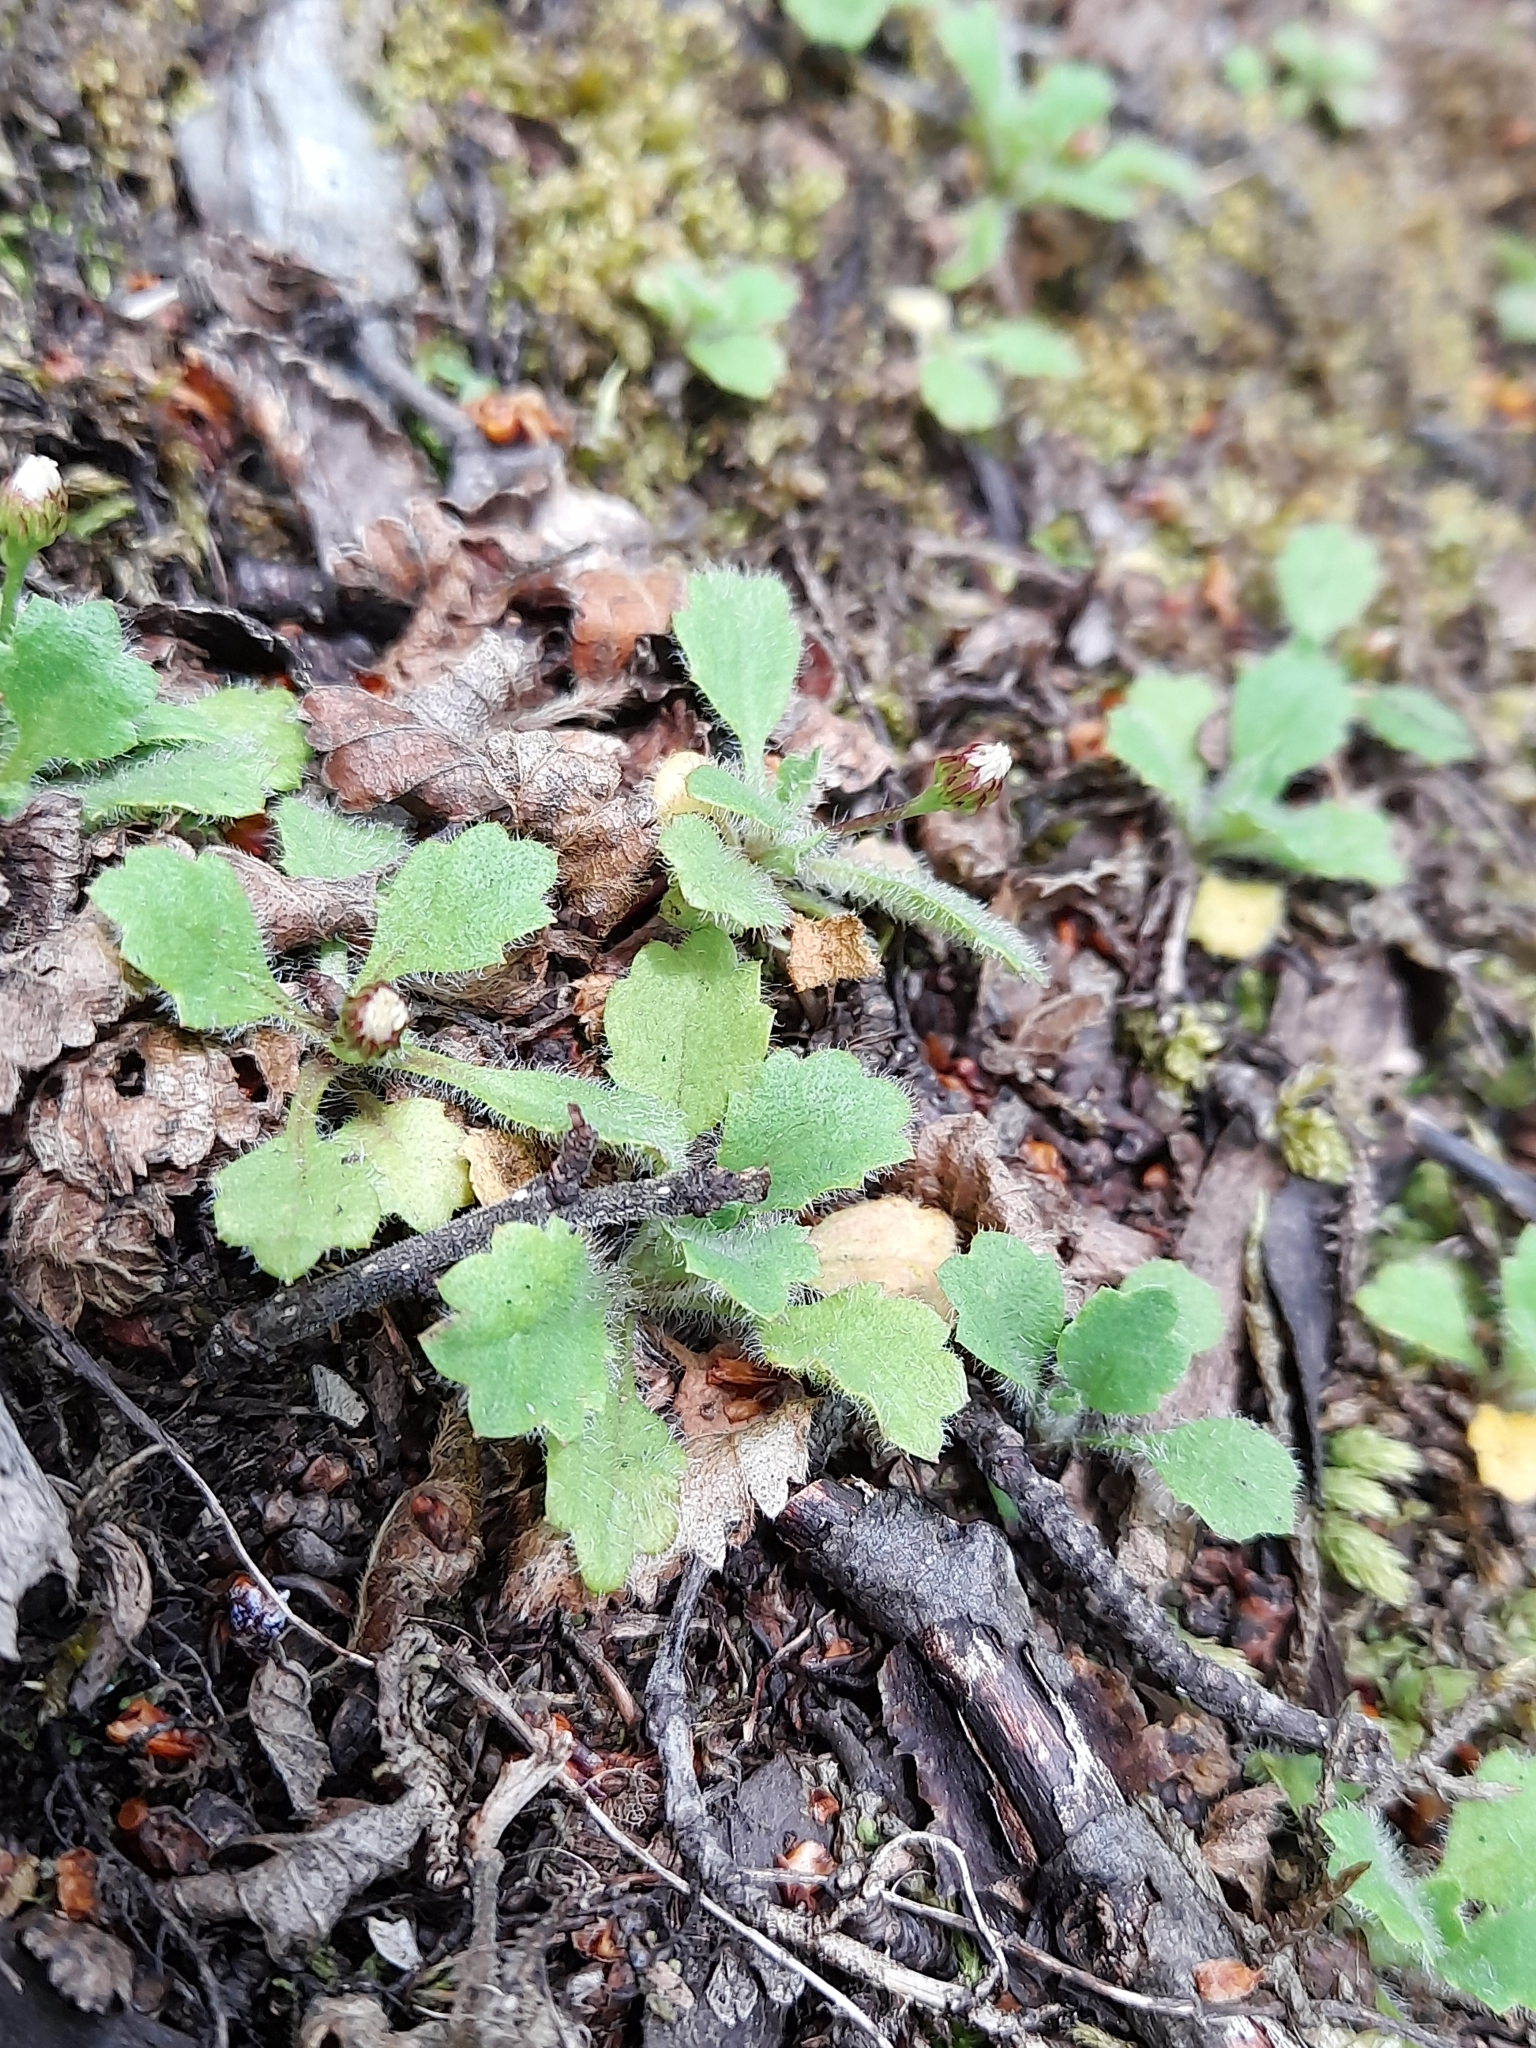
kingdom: Plantae
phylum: Tracheophyta
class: Magnoliopsida
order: Asterales
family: Asteraceae
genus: Lagenophora
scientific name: Lagenophora nudicaulis
